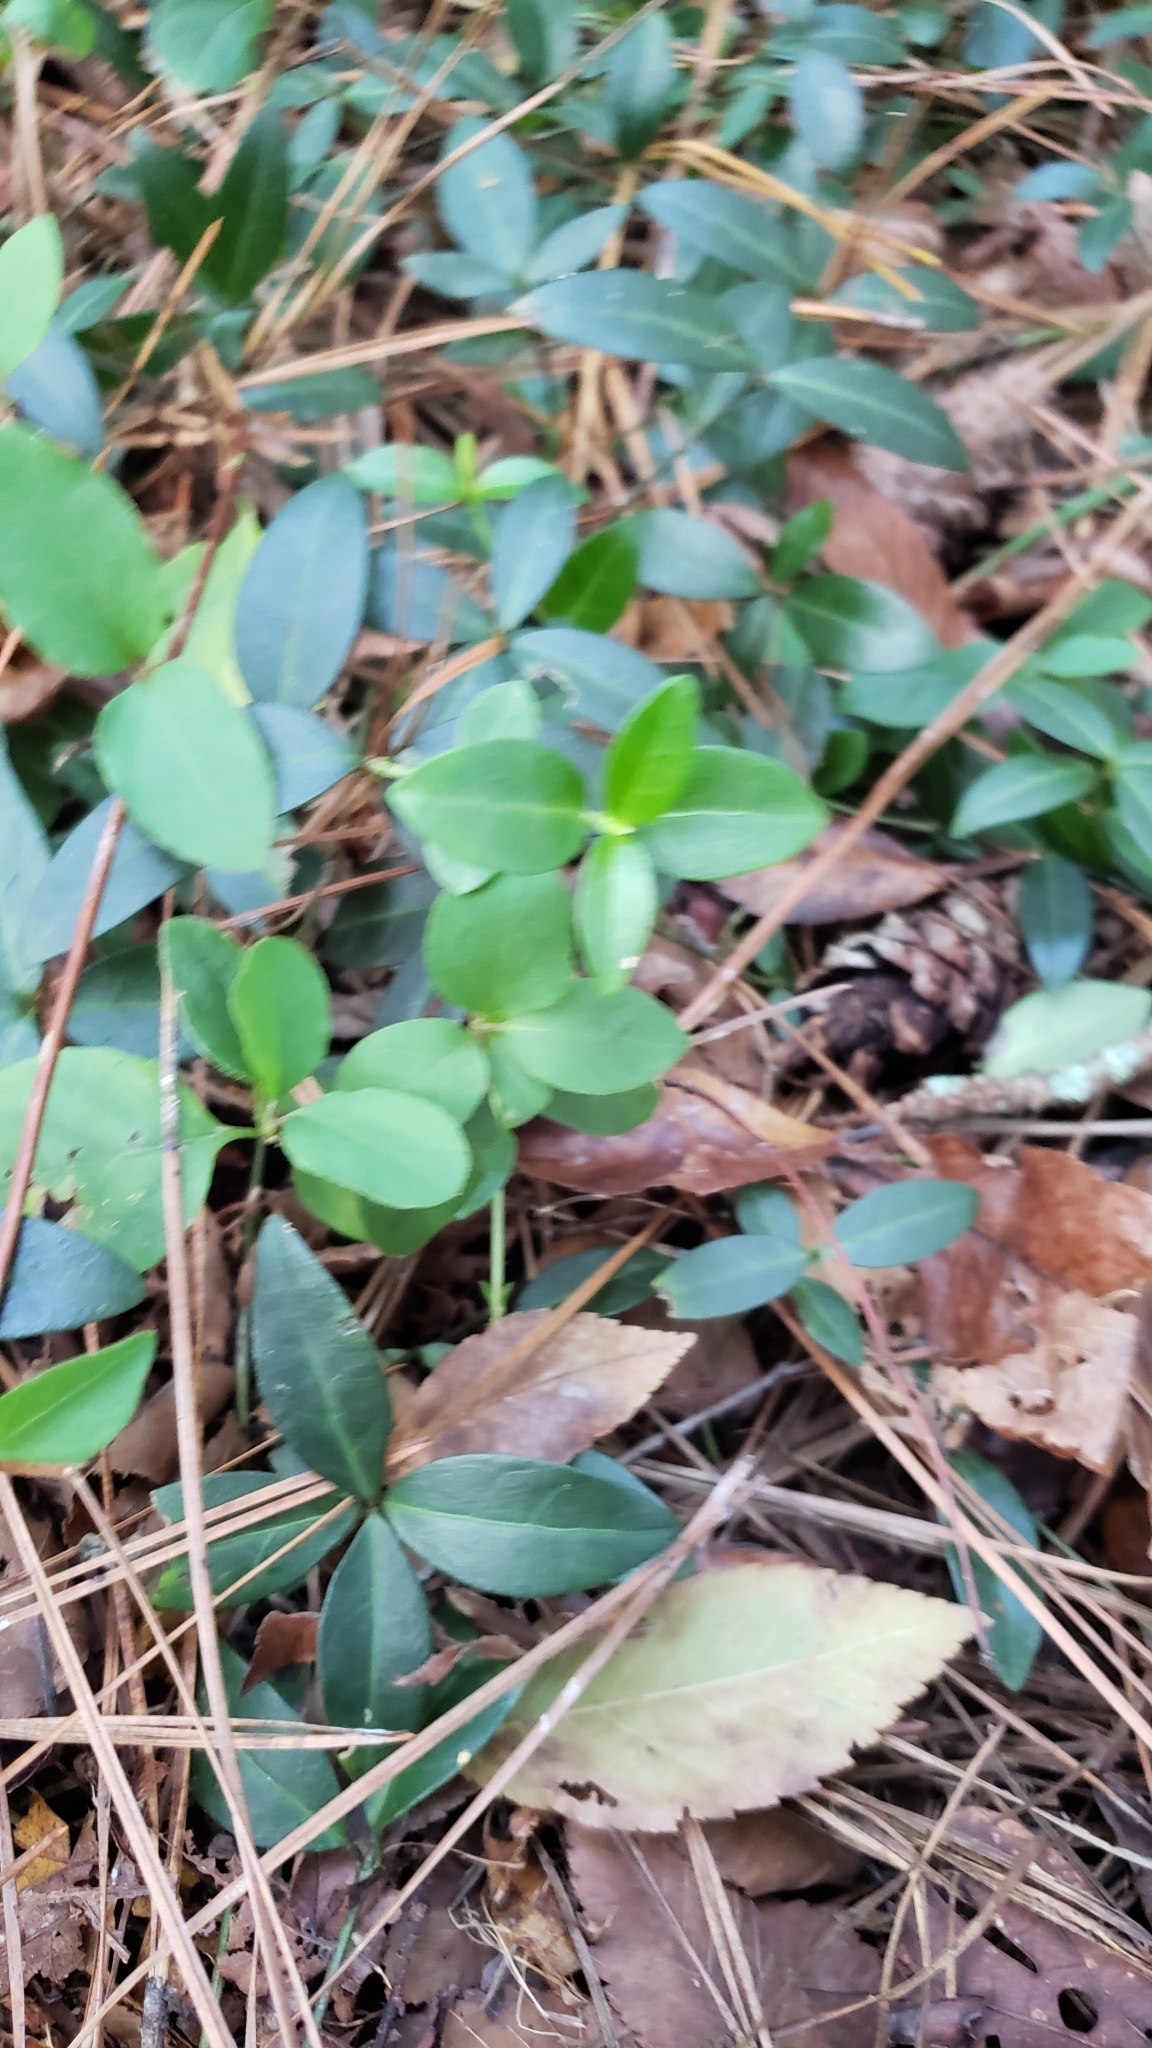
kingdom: Plantae
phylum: Tracheophyta
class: Magnoliopsida
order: Gentianales
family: Apocynaceae
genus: Vinca
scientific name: Vinca minor
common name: Lesser periwinkle
